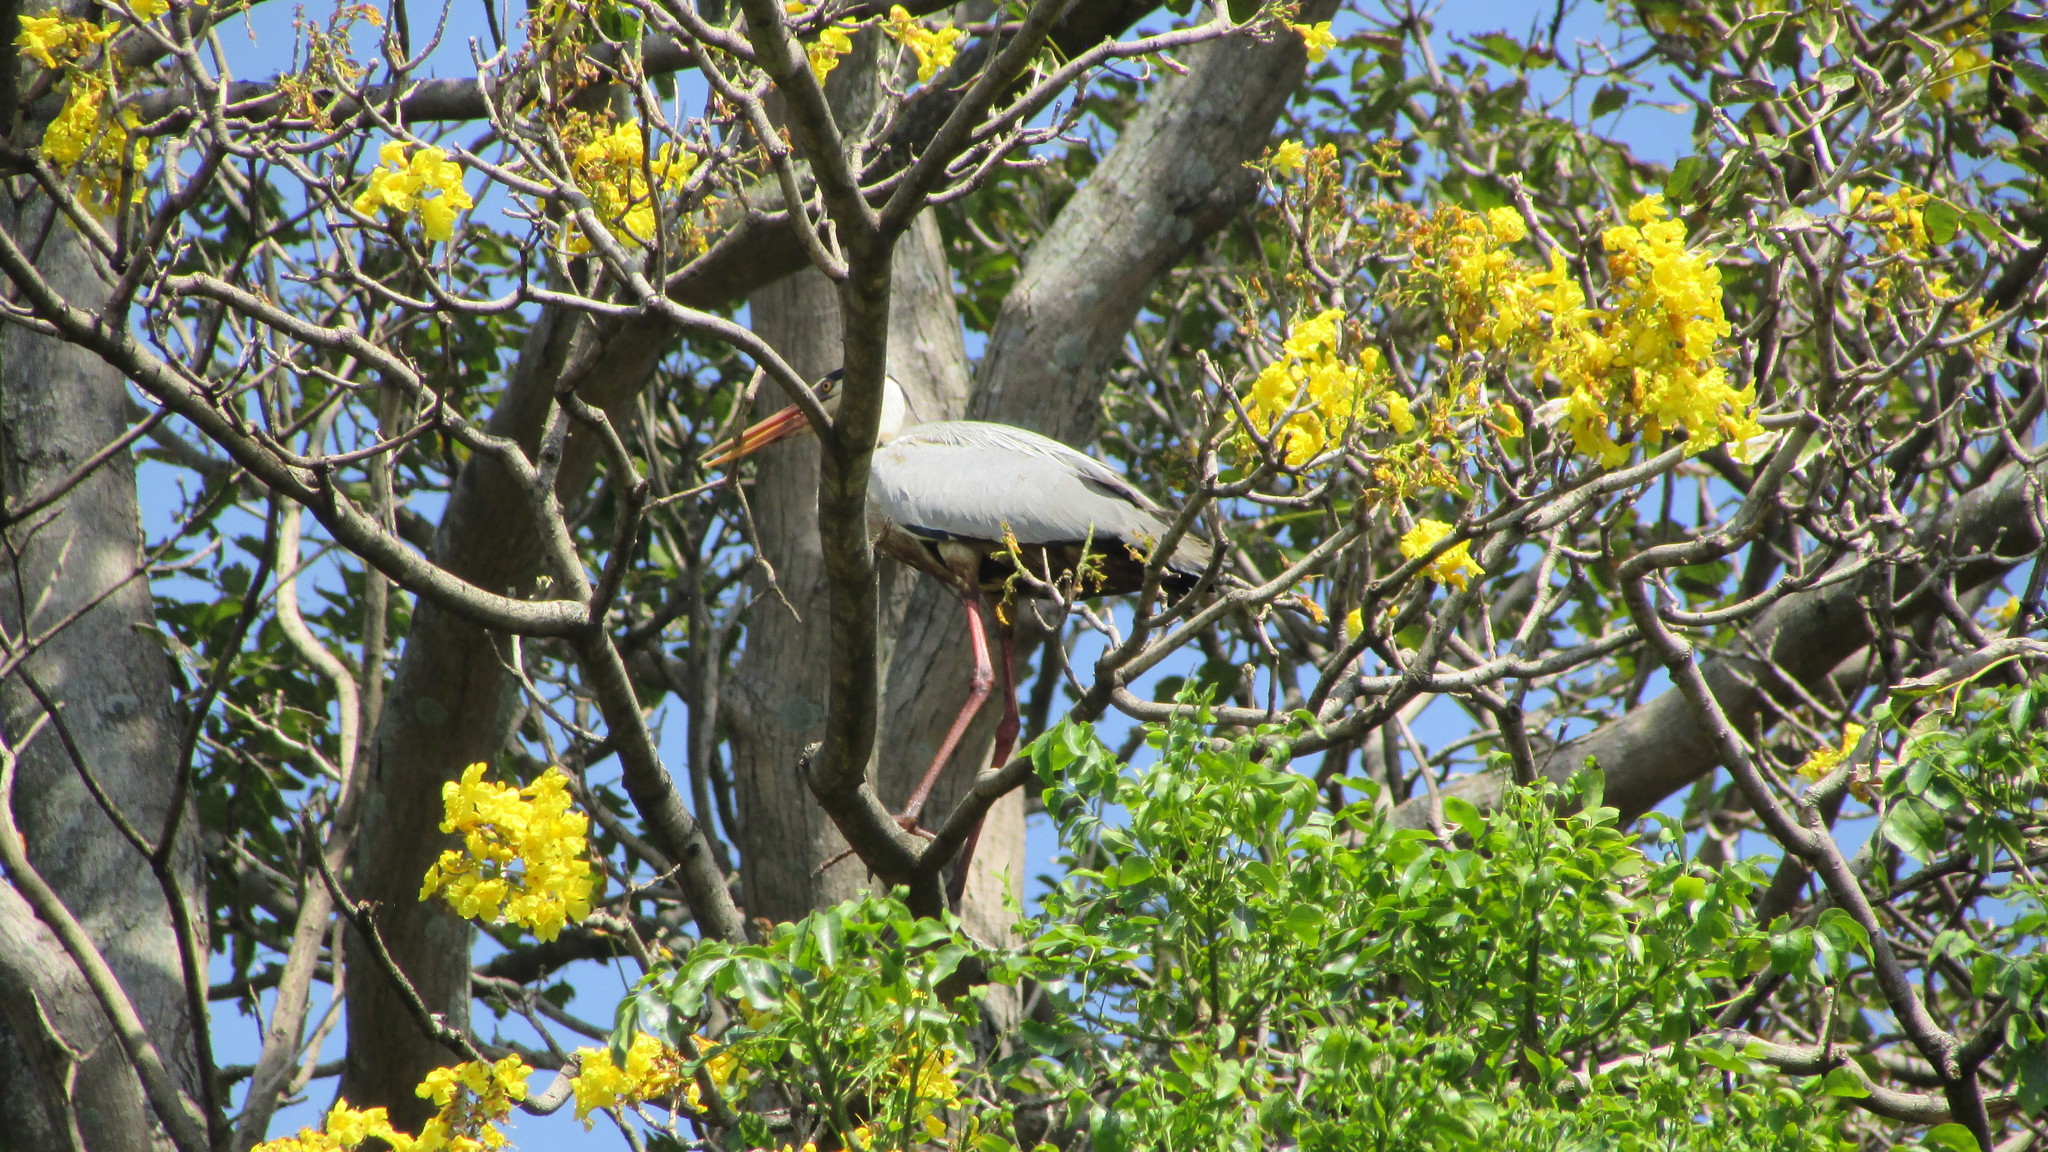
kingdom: Animalia
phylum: Chordata
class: Aves
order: Pelecaniformes
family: Ardeidae
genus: Ardea
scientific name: Ardea cinerea
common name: Grey heron
